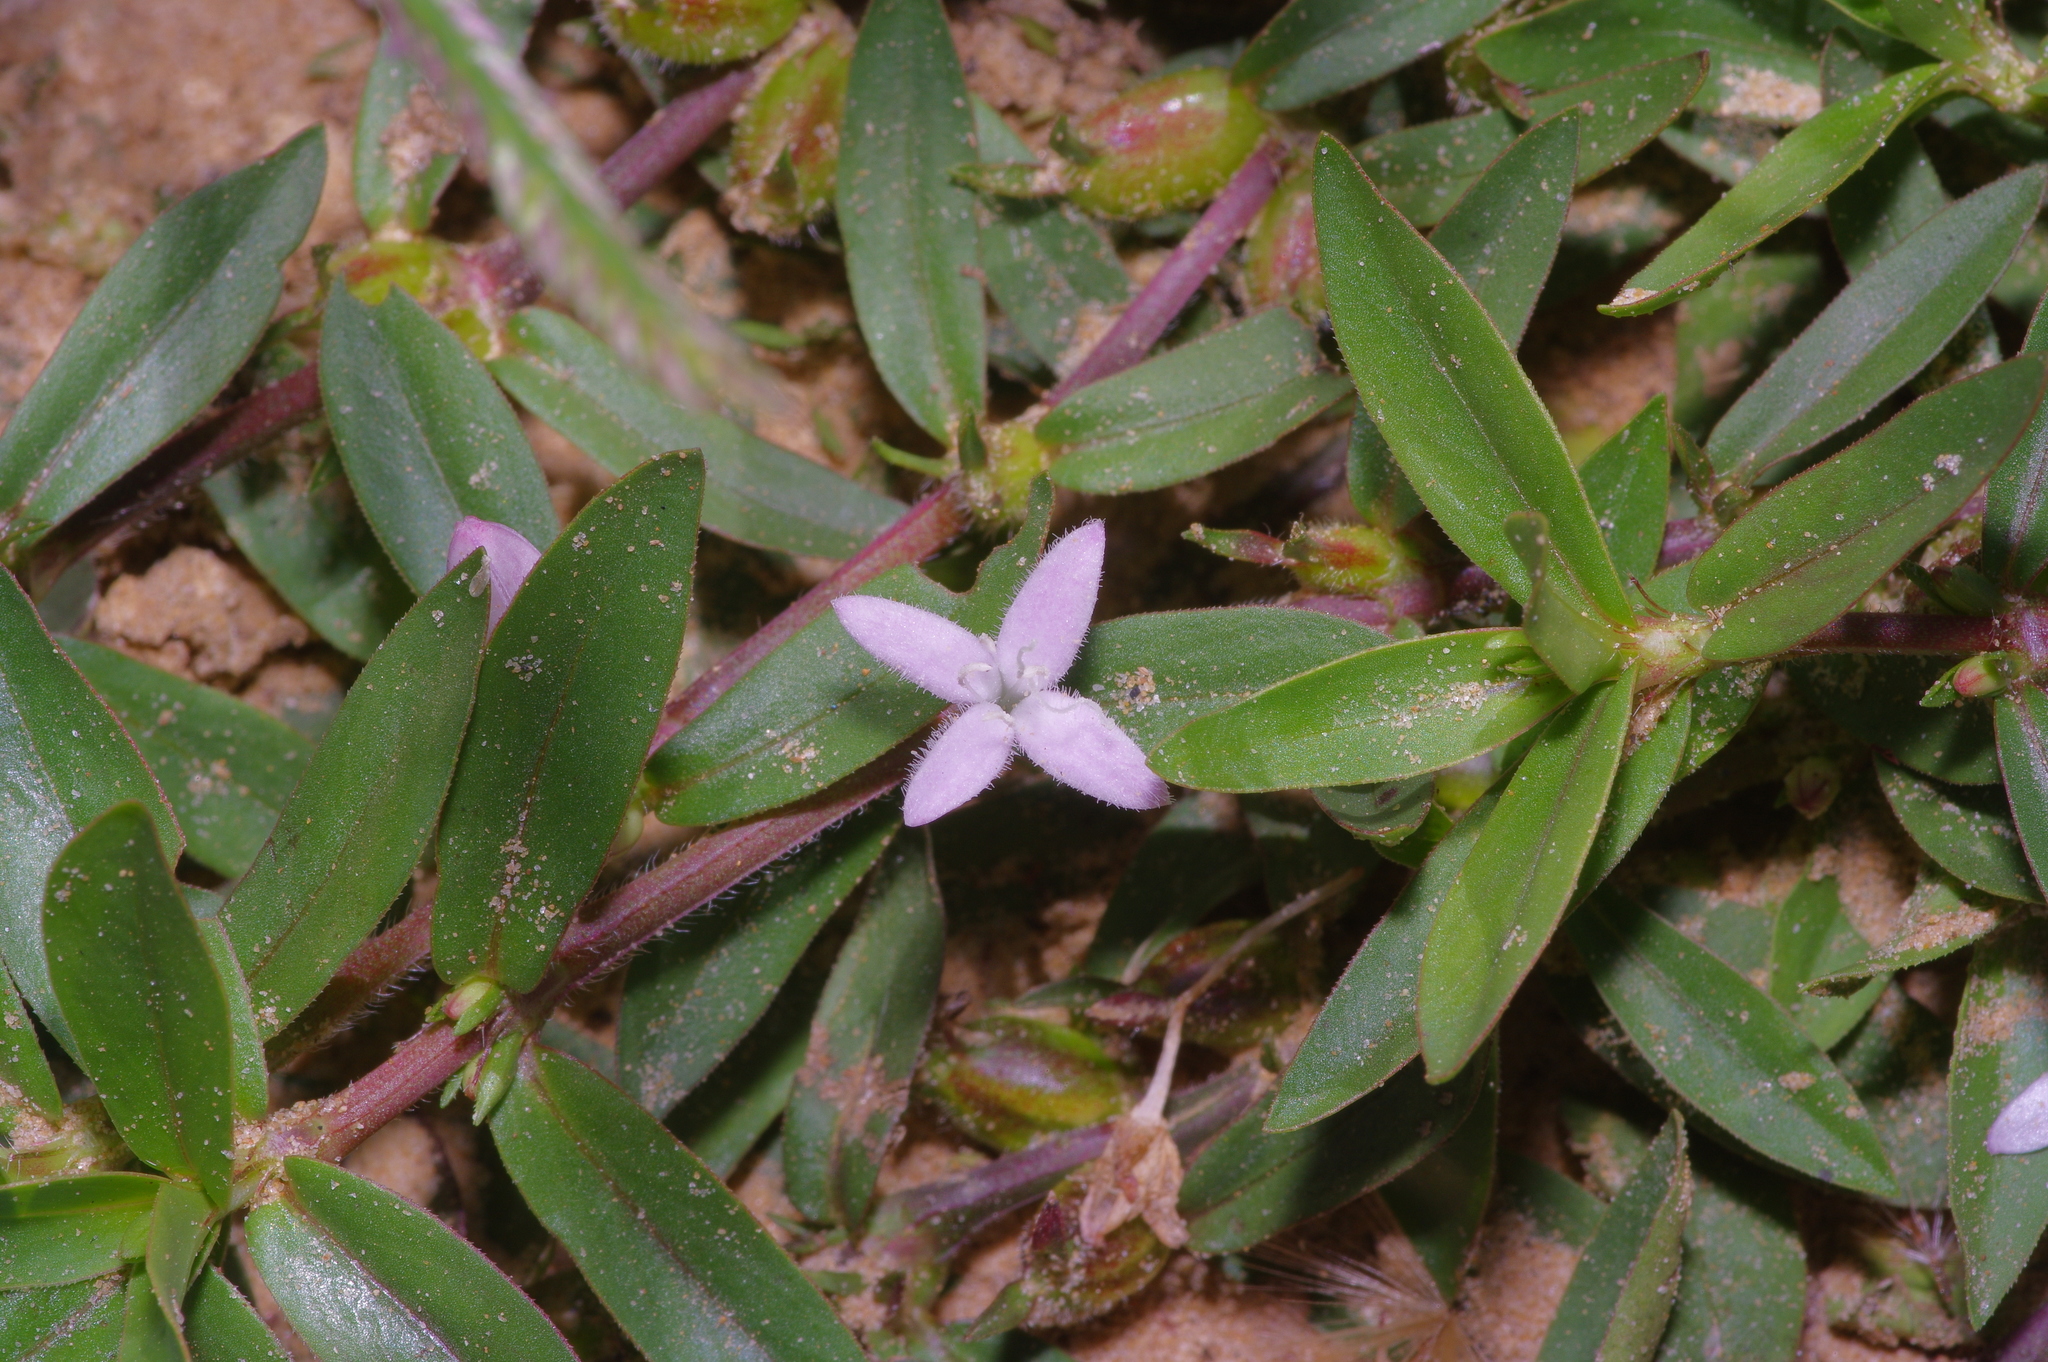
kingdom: Plantae
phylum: Tracheophyta
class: Magnoliopsida
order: Gentianales
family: Rubiaceae
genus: Diodia
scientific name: Diodia virginiana
